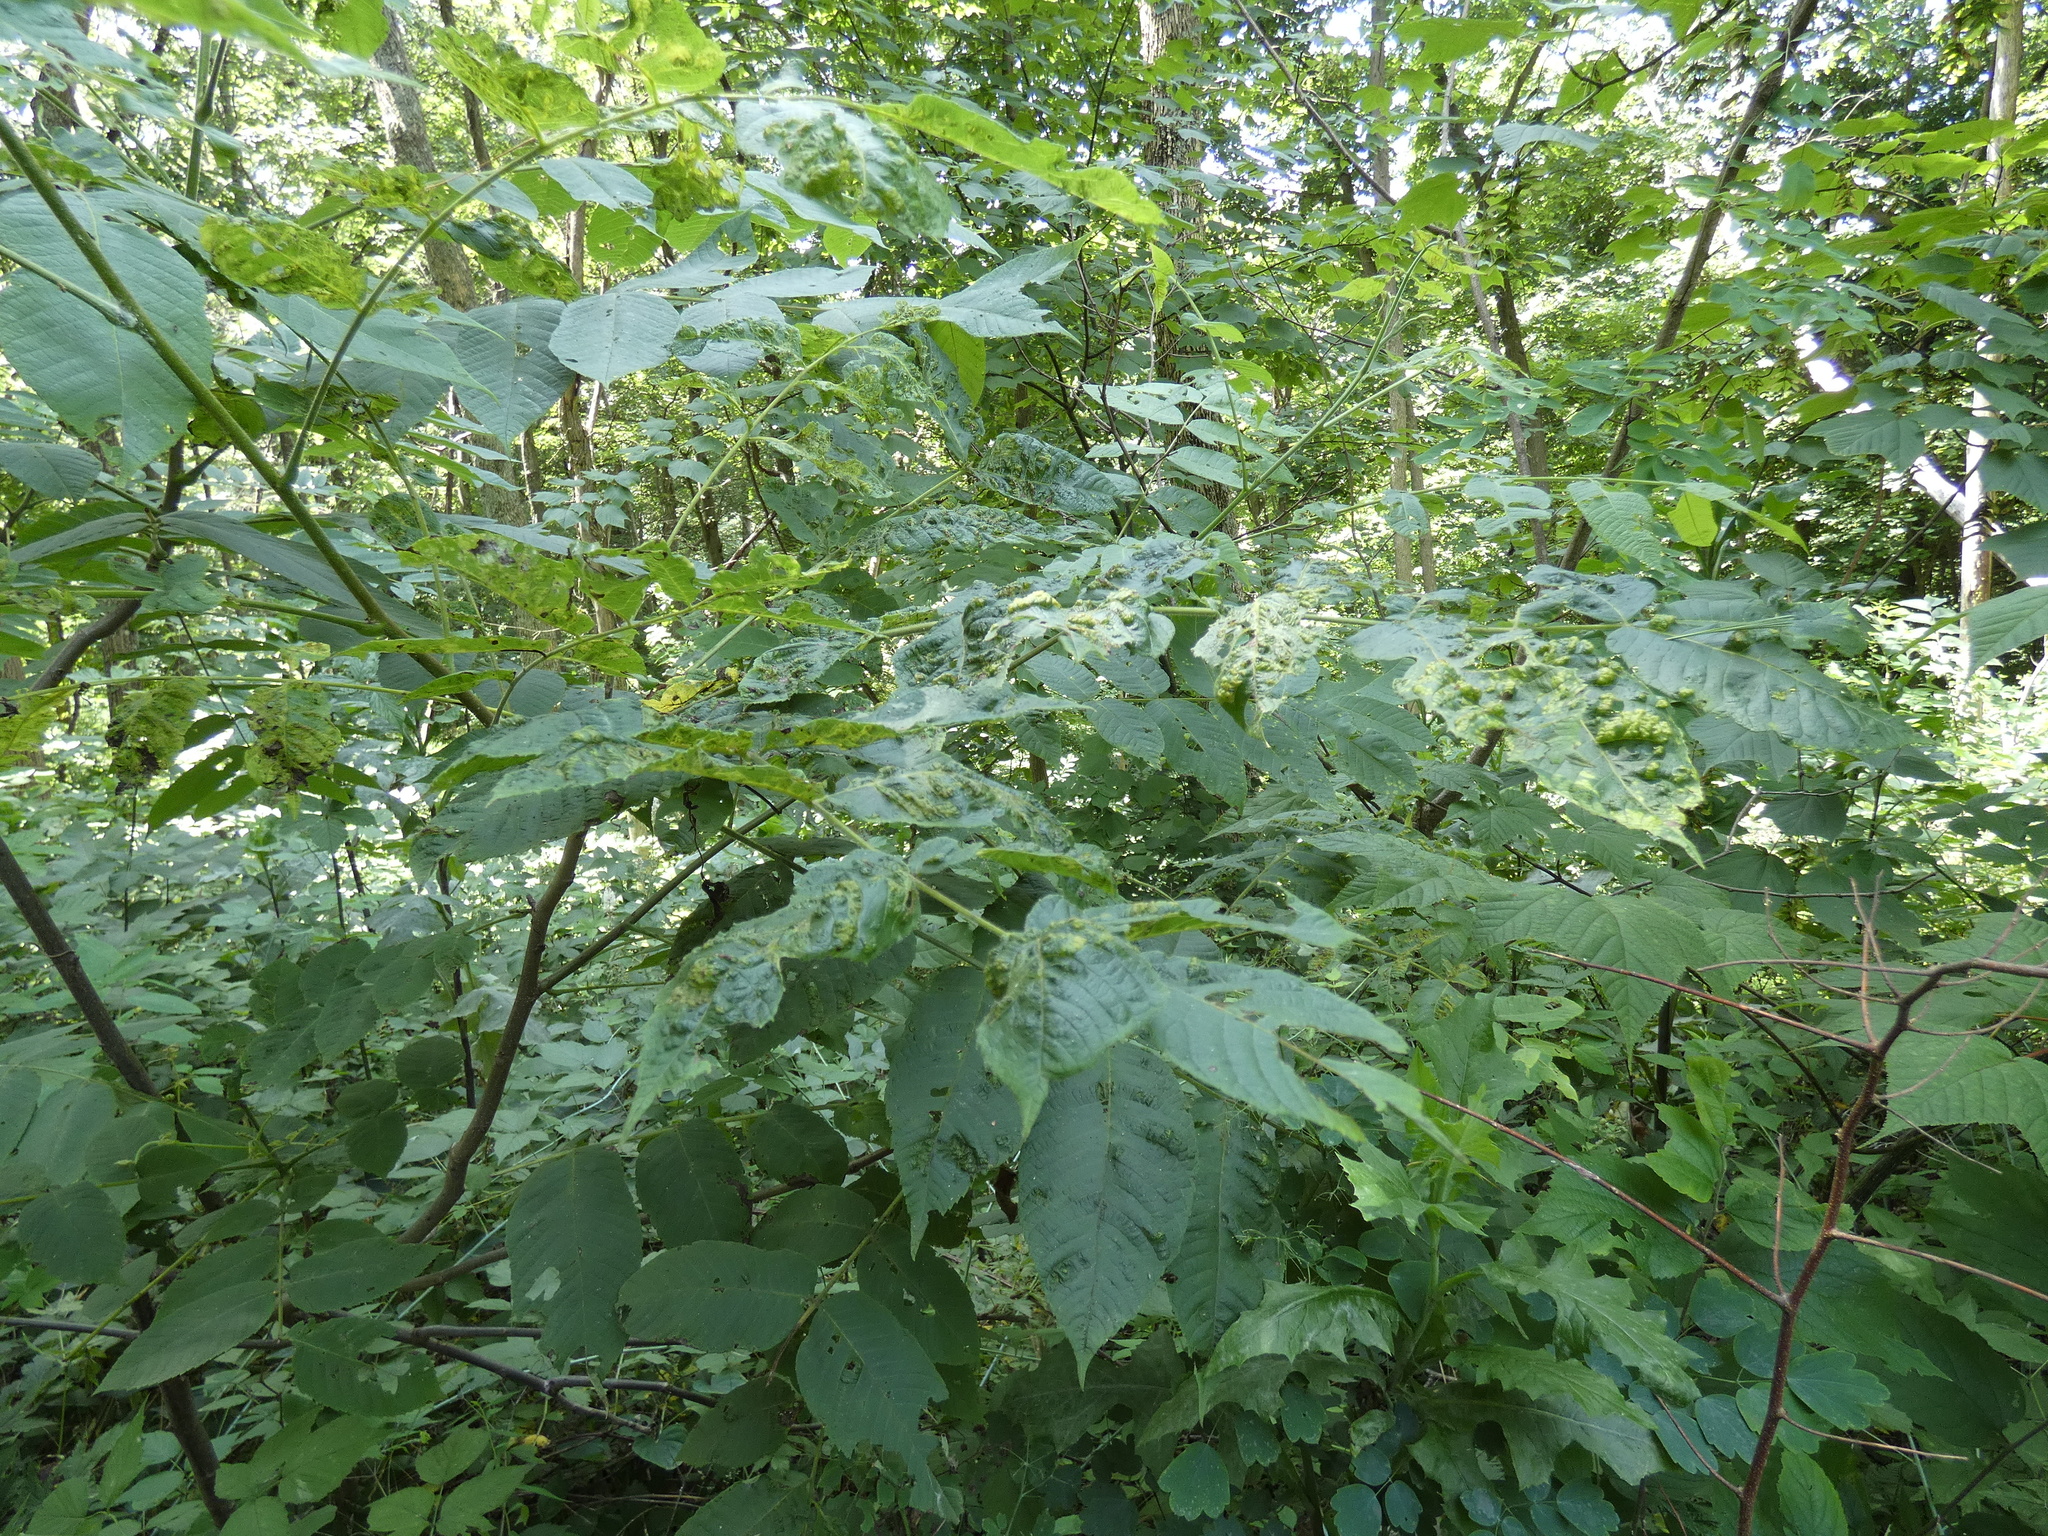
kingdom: Animalia
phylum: Arthropoda
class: Arachnida
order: Trombidiformes
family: Eriophyidae
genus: Aceria
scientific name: Aceria
